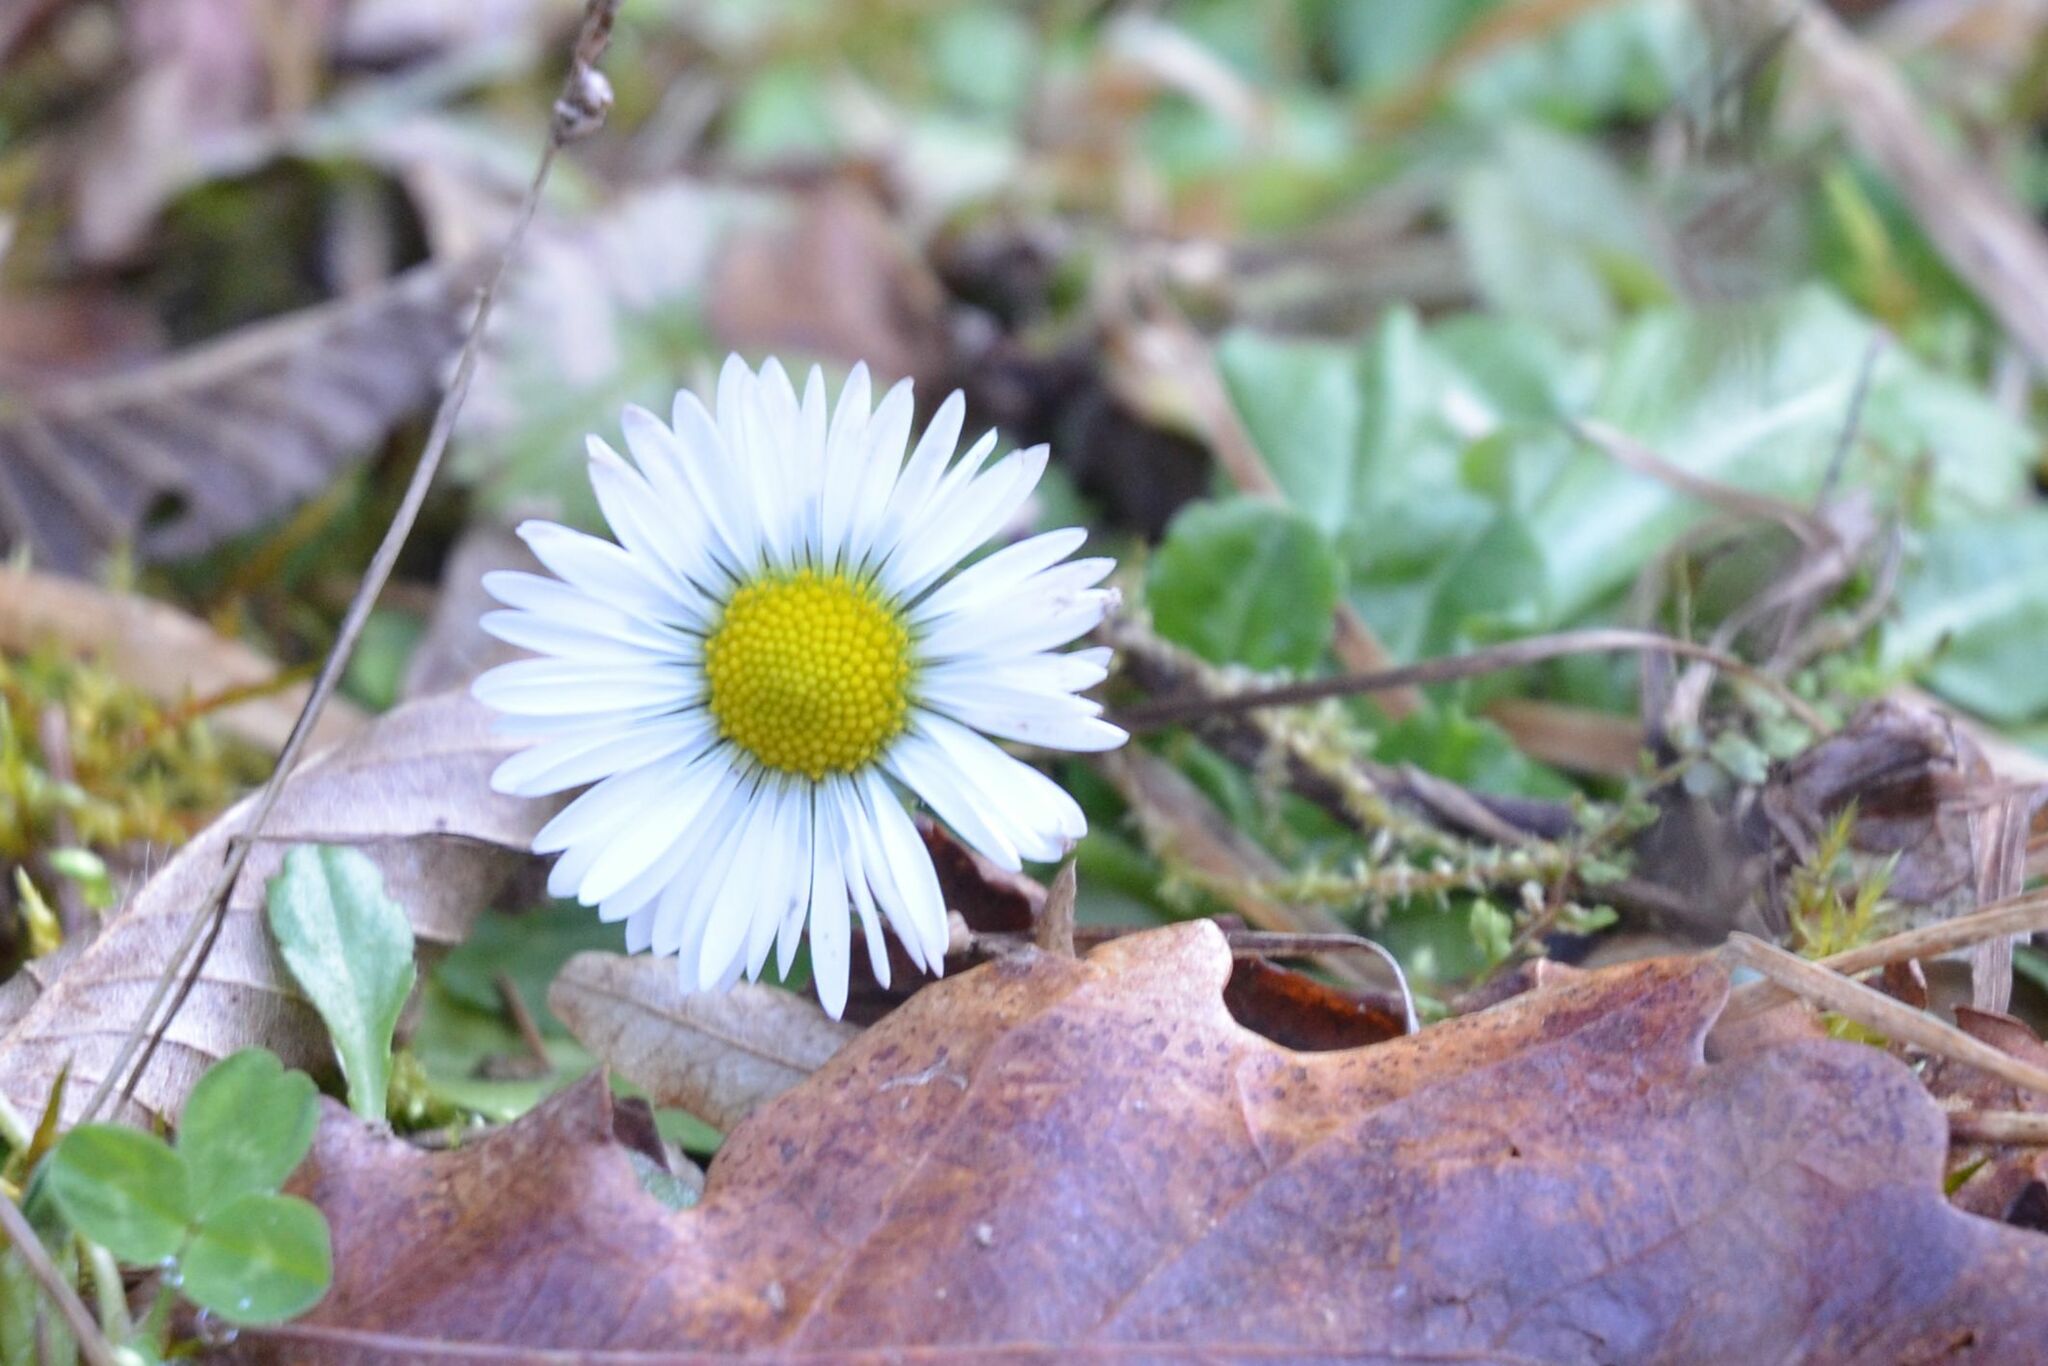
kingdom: Plantae
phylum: Tracheophyta
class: Magnoliopsida
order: Asterales
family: Asteraceae
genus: Bellis
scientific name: Bellis perennis
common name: Lawndaisy
